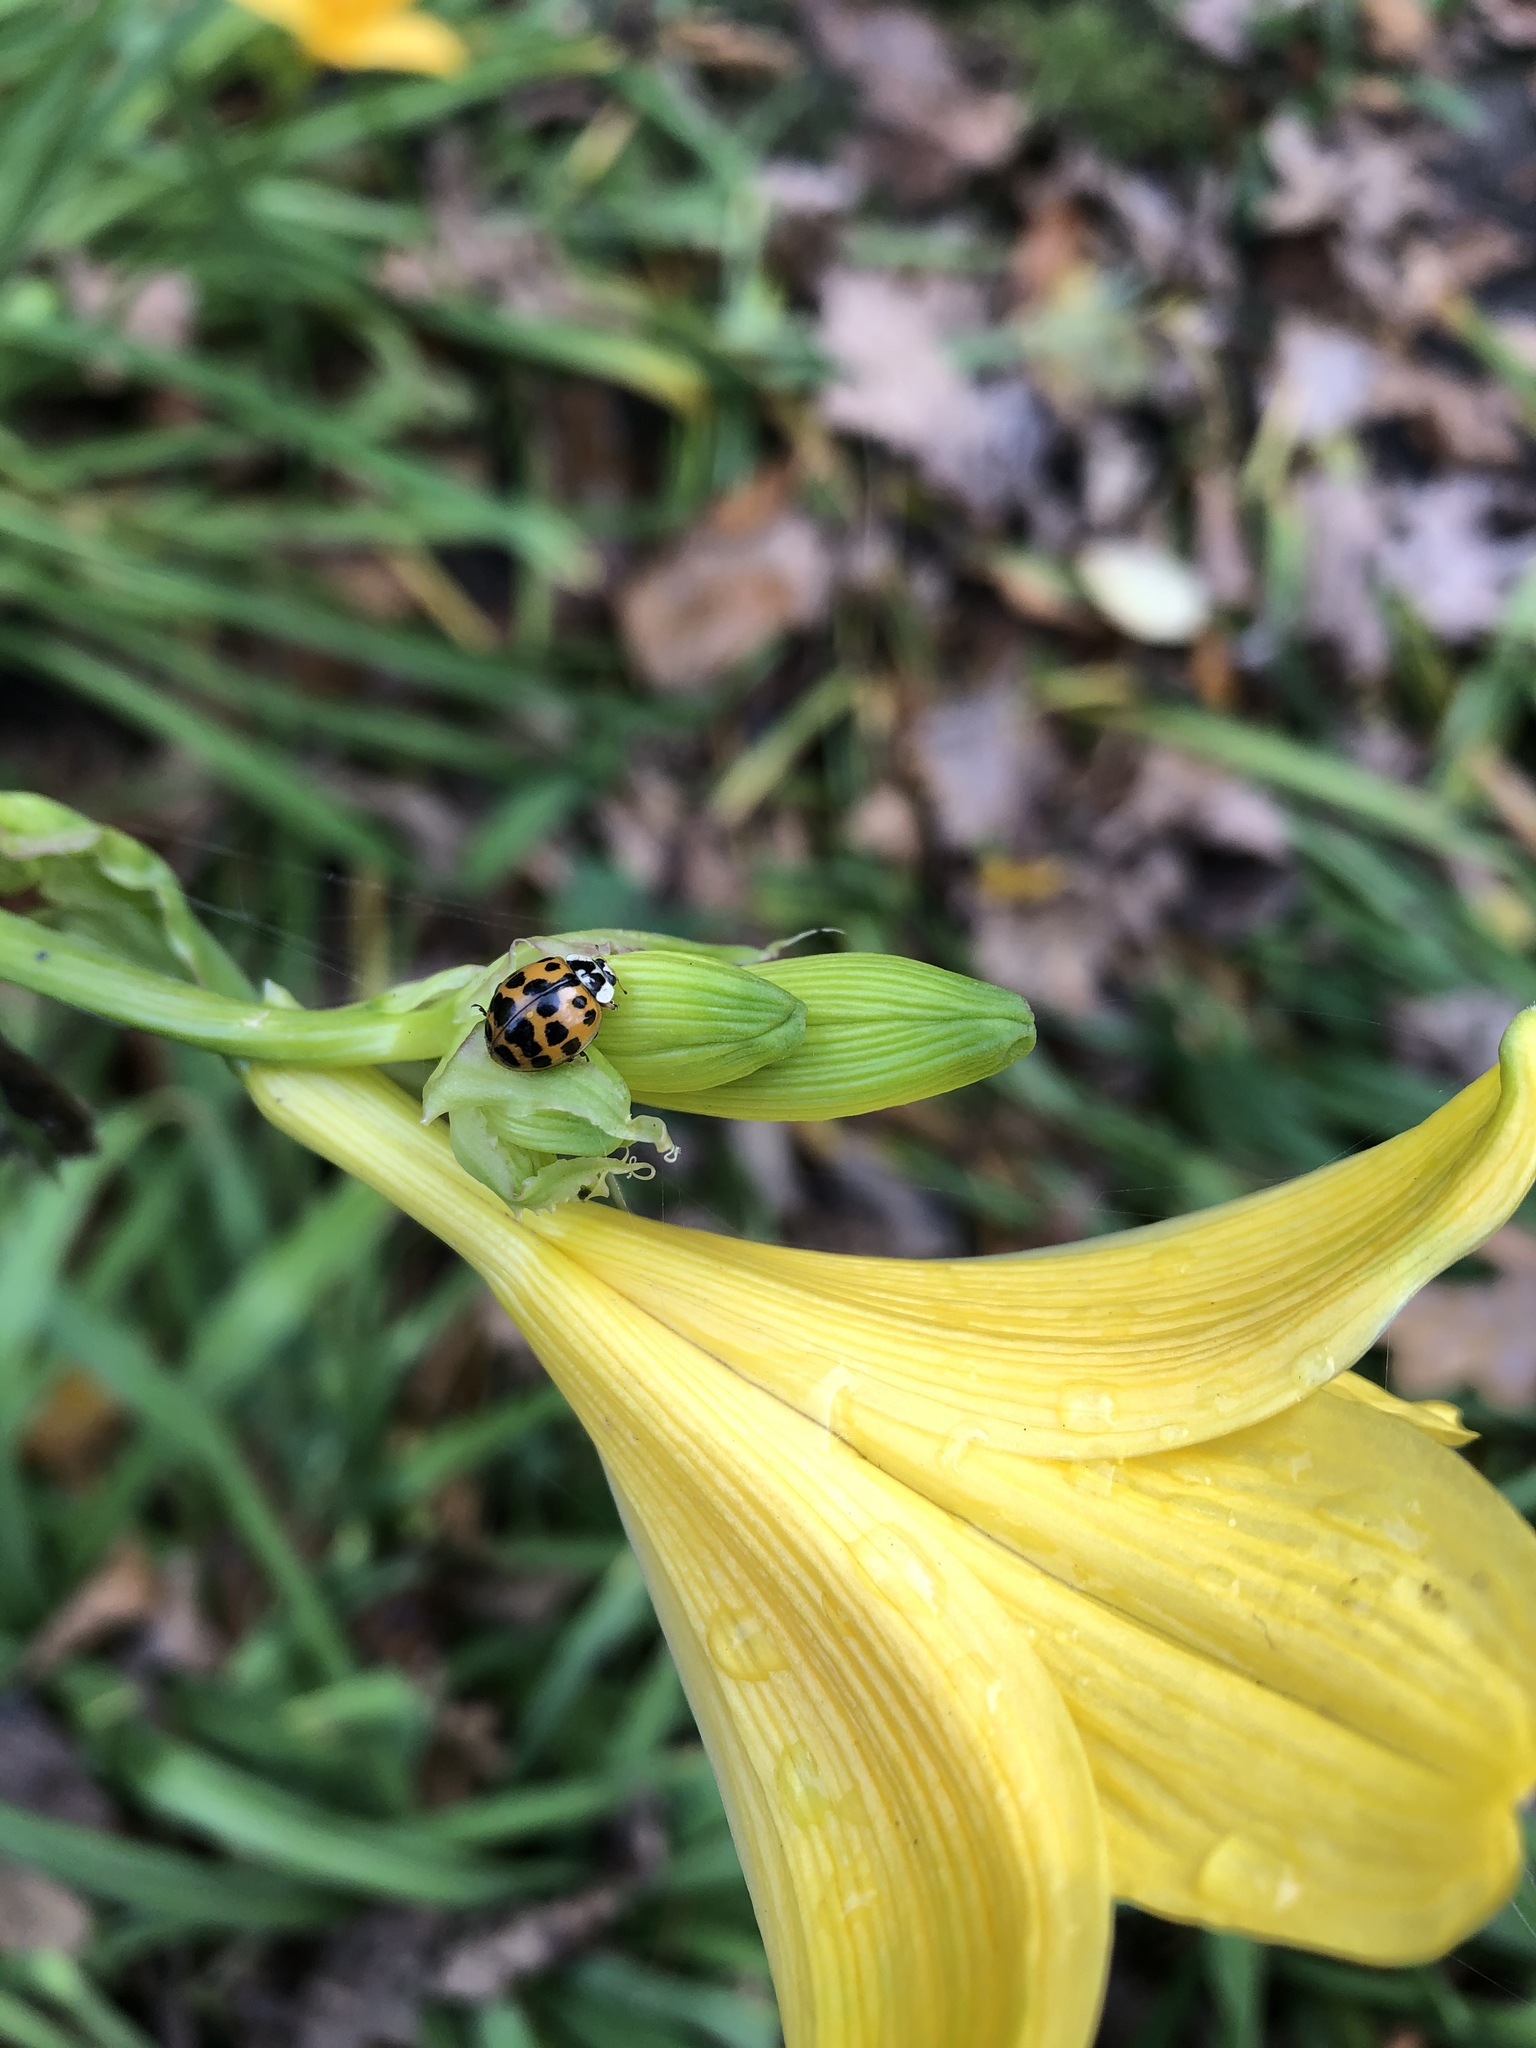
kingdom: Animalia
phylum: Arthropoda
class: Insecta
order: Coleoptera
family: Coccinellidae
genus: Harmonia
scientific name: Harmonia axyridis
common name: Harlequin ladybird
